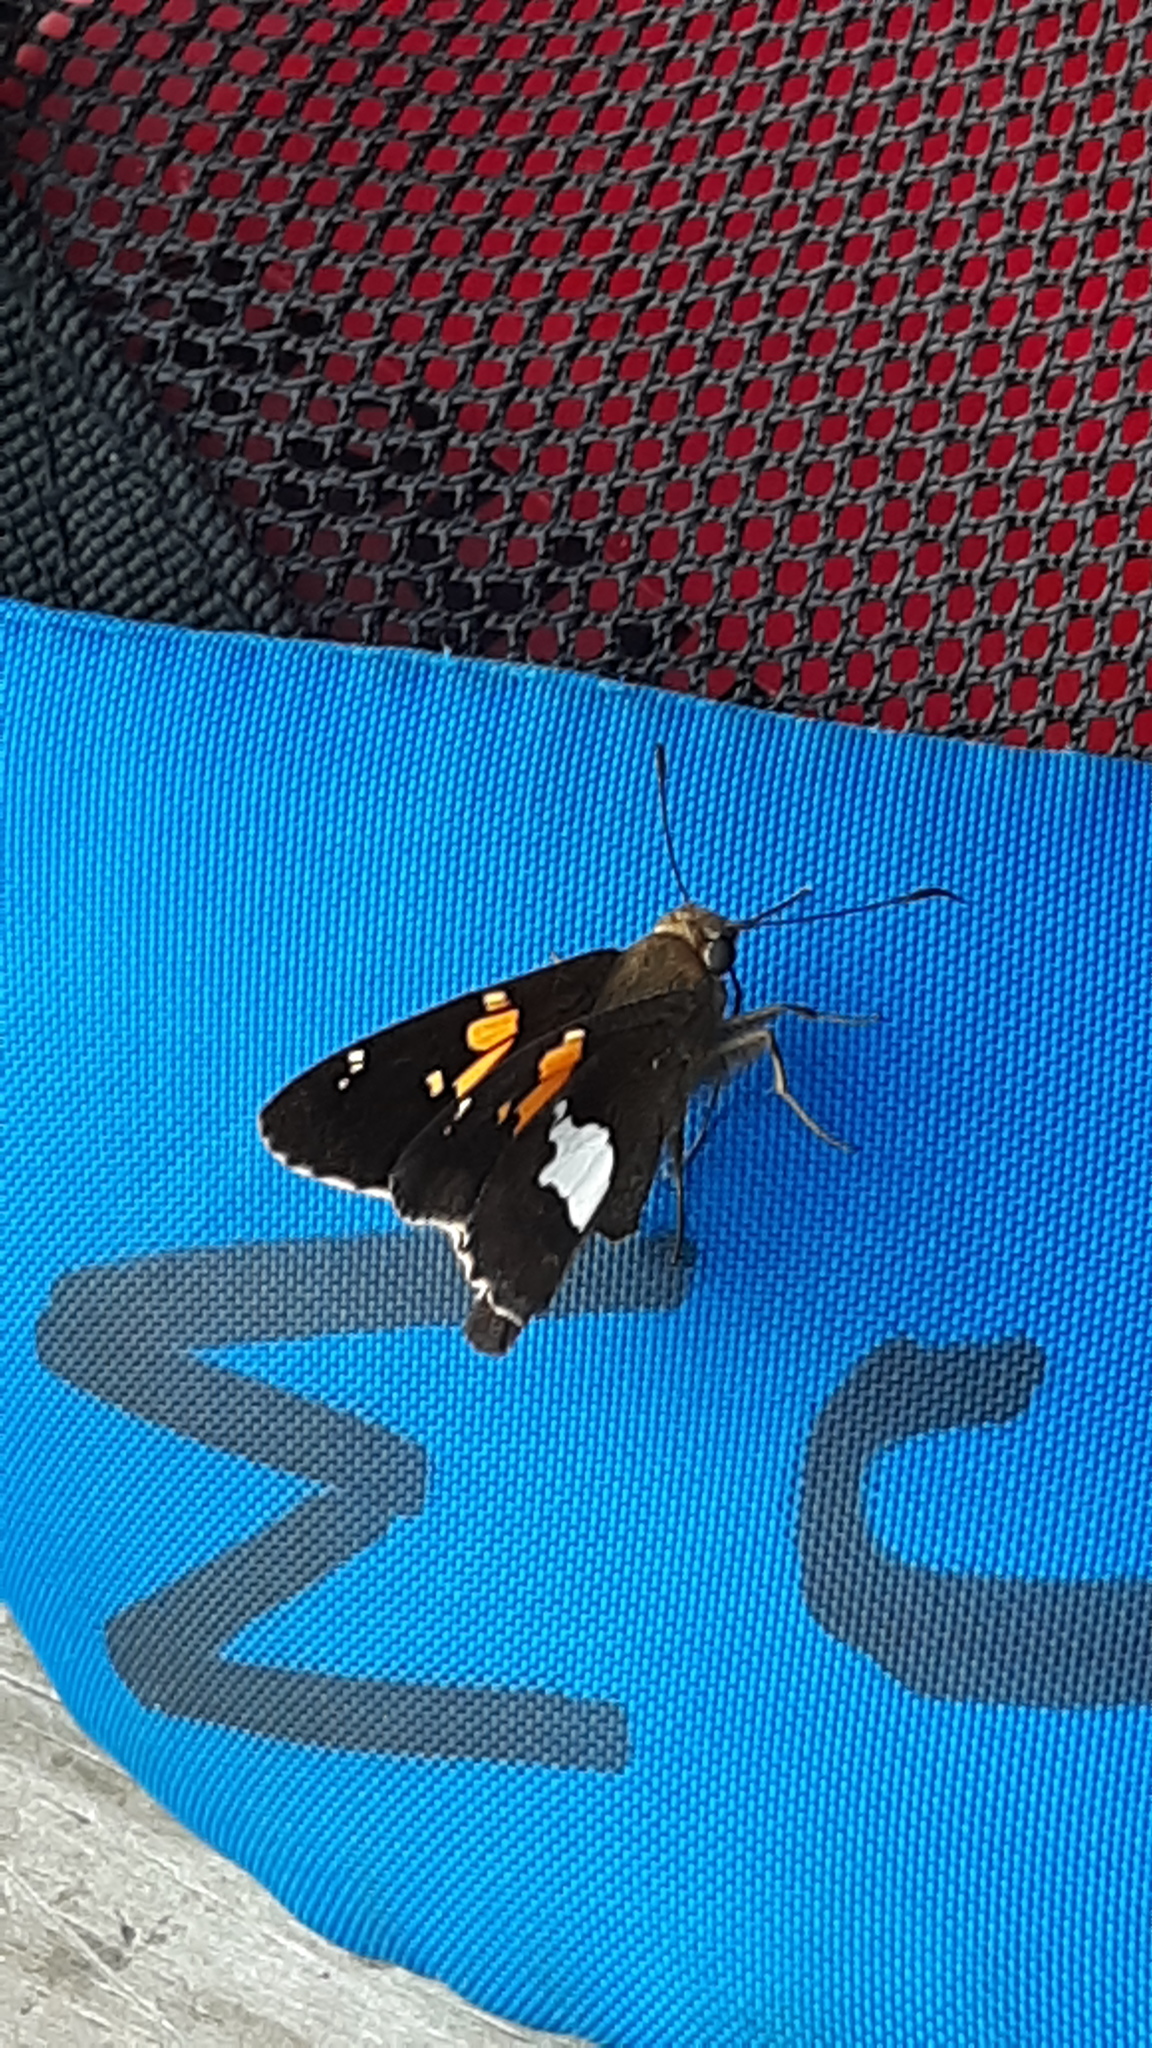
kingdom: Animalia
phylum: Arthropoda
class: Insecta
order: Lepidoptera
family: Hesperiidae
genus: Epargyreus
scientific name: Epargyreus clarus
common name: Silver-spotted skipper
